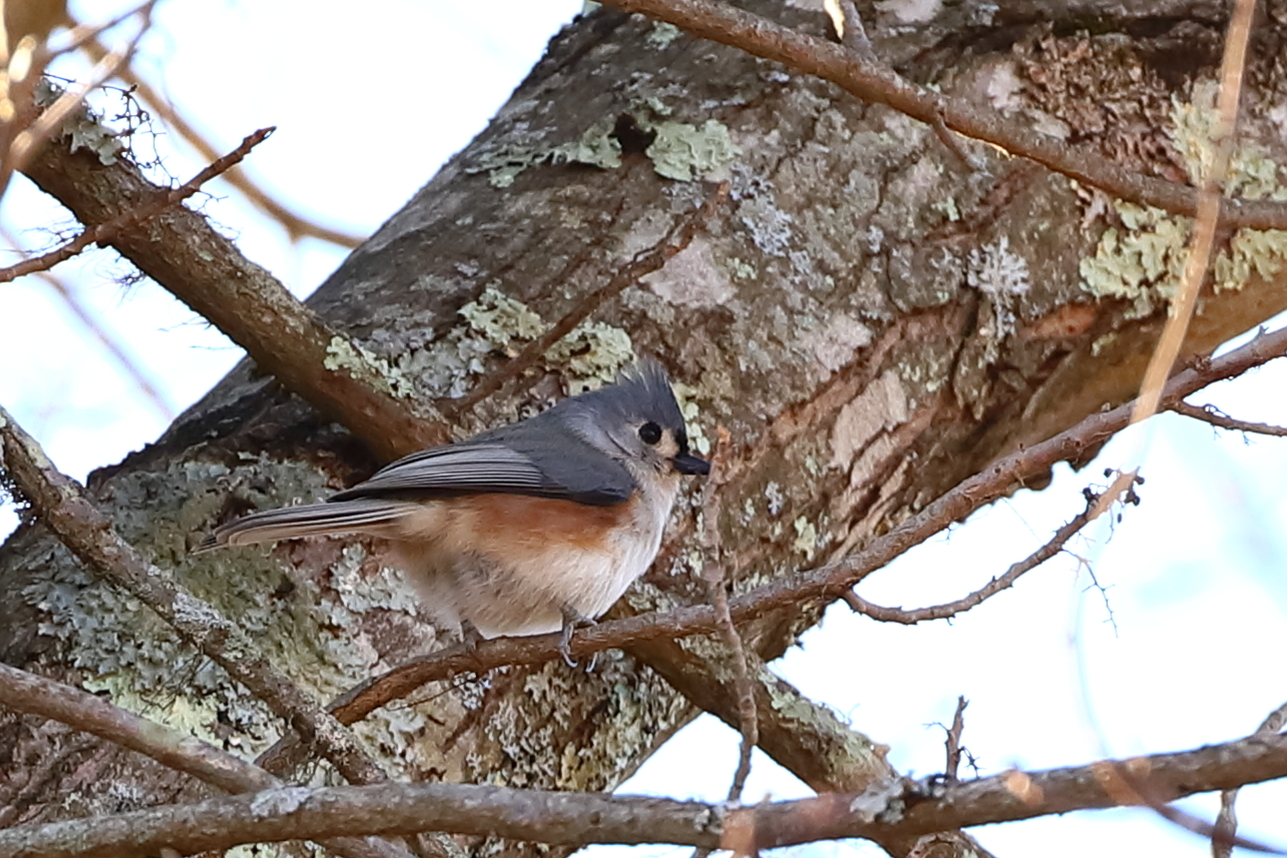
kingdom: Animalia
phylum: Chordata
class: Aves
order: Passeriformes
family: Paridae
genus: Baeolophus
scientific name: Baeolophus bicolor
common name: Tufted titmouse
